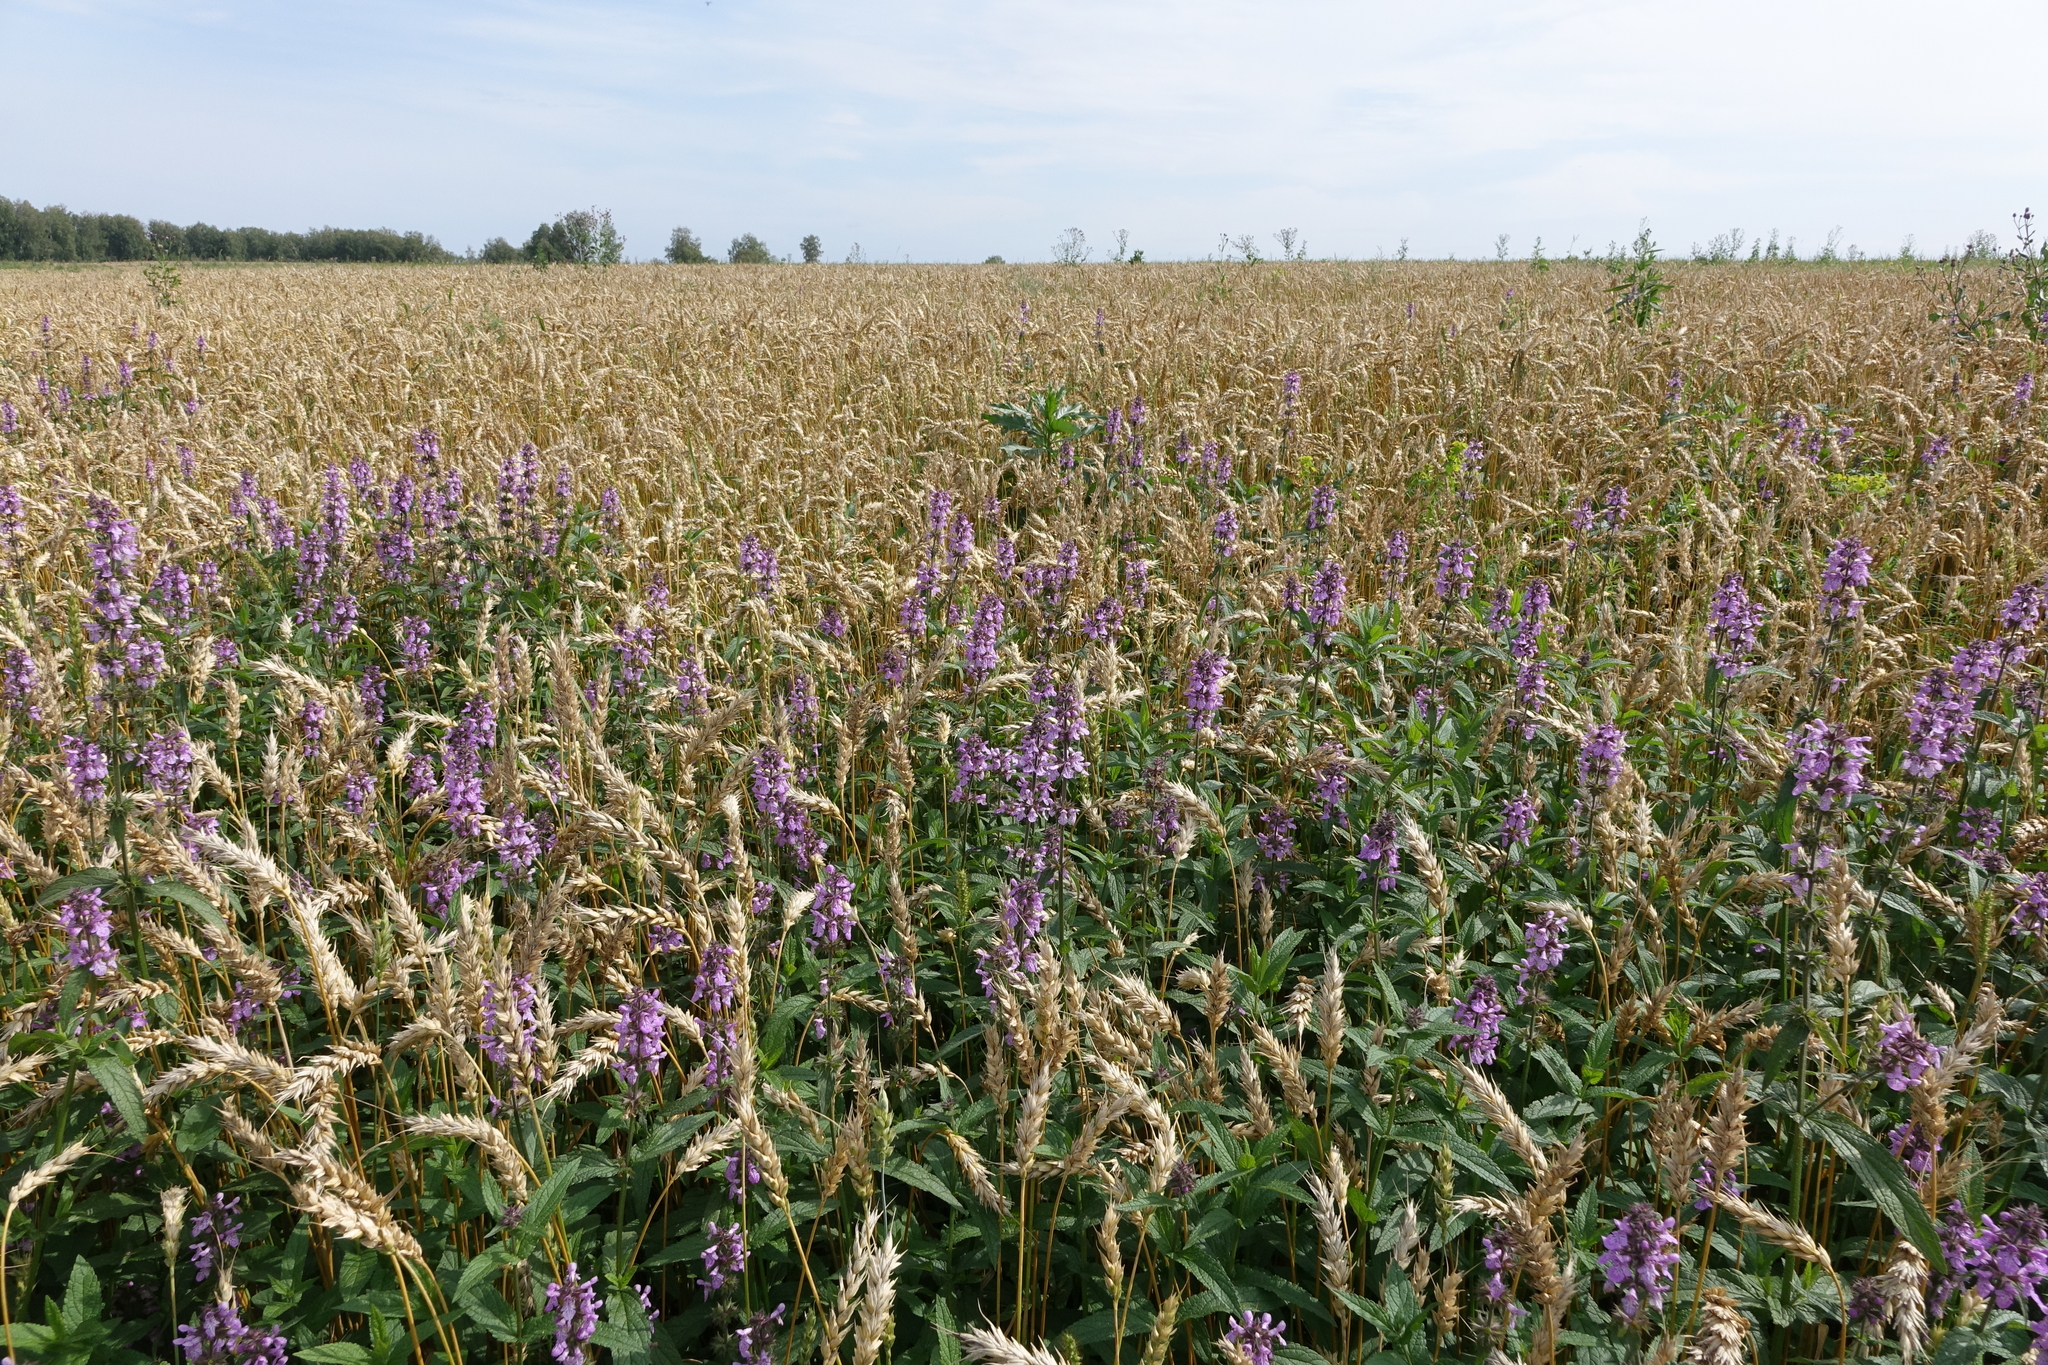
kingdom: Plantae
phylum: Tracheophyta
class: Magnoliopsida
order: Lamiales
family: Lamiaceae
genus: Stachys
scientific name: Stachys palustris
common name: Marsh woundwort
